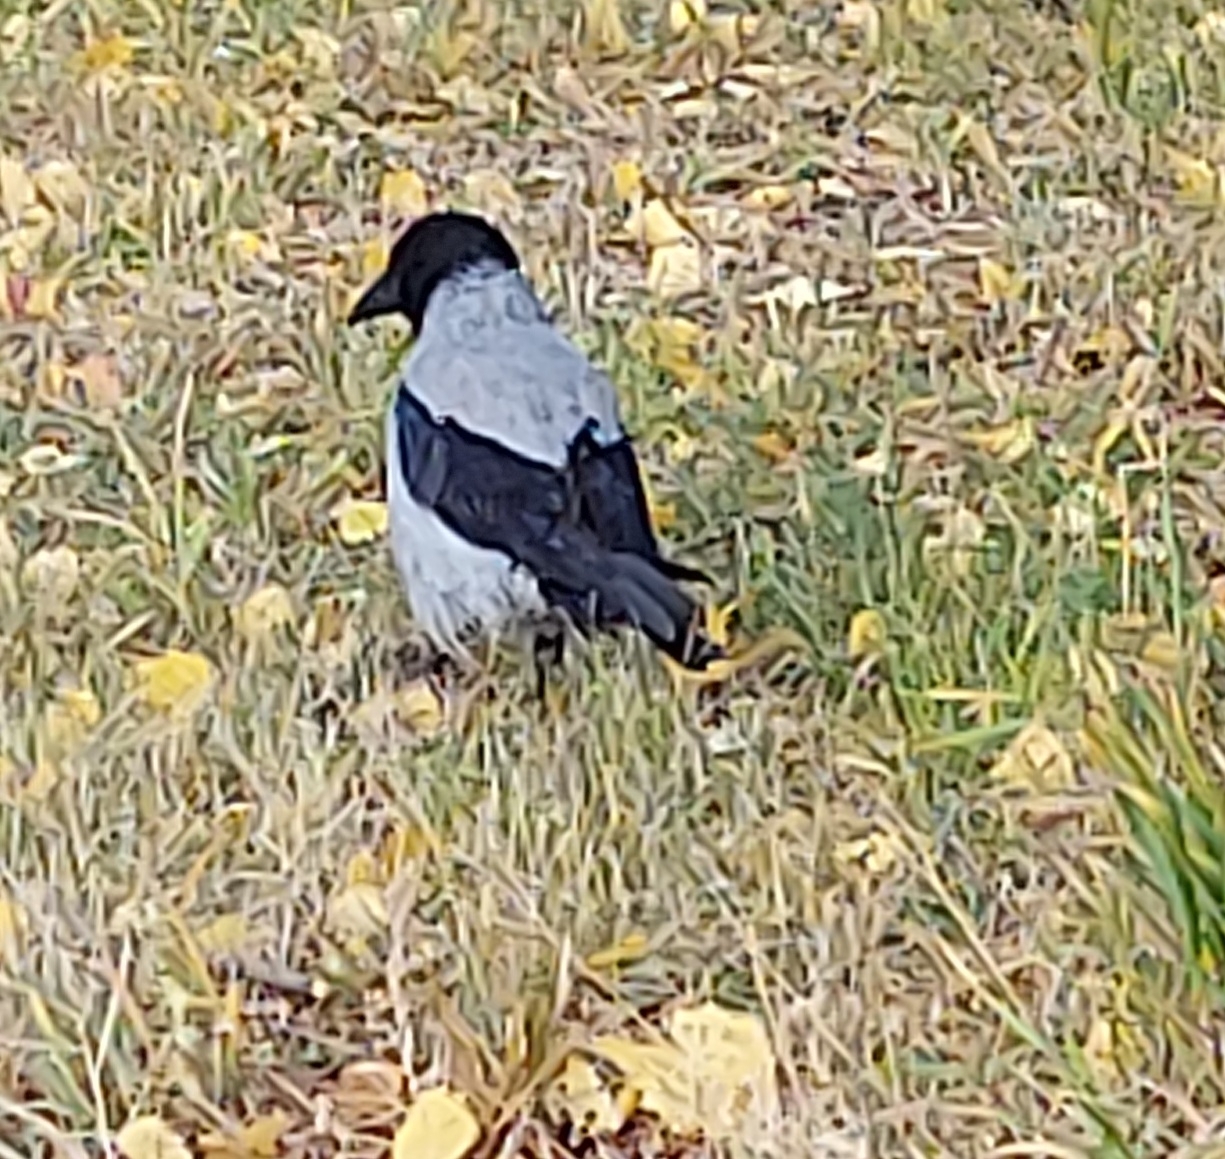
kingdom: Animalia
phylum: Chordata
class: Aves
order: Passeriformes
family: Corvidae
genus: Corvus
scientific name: Corvus cornix
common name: Hooded crow
